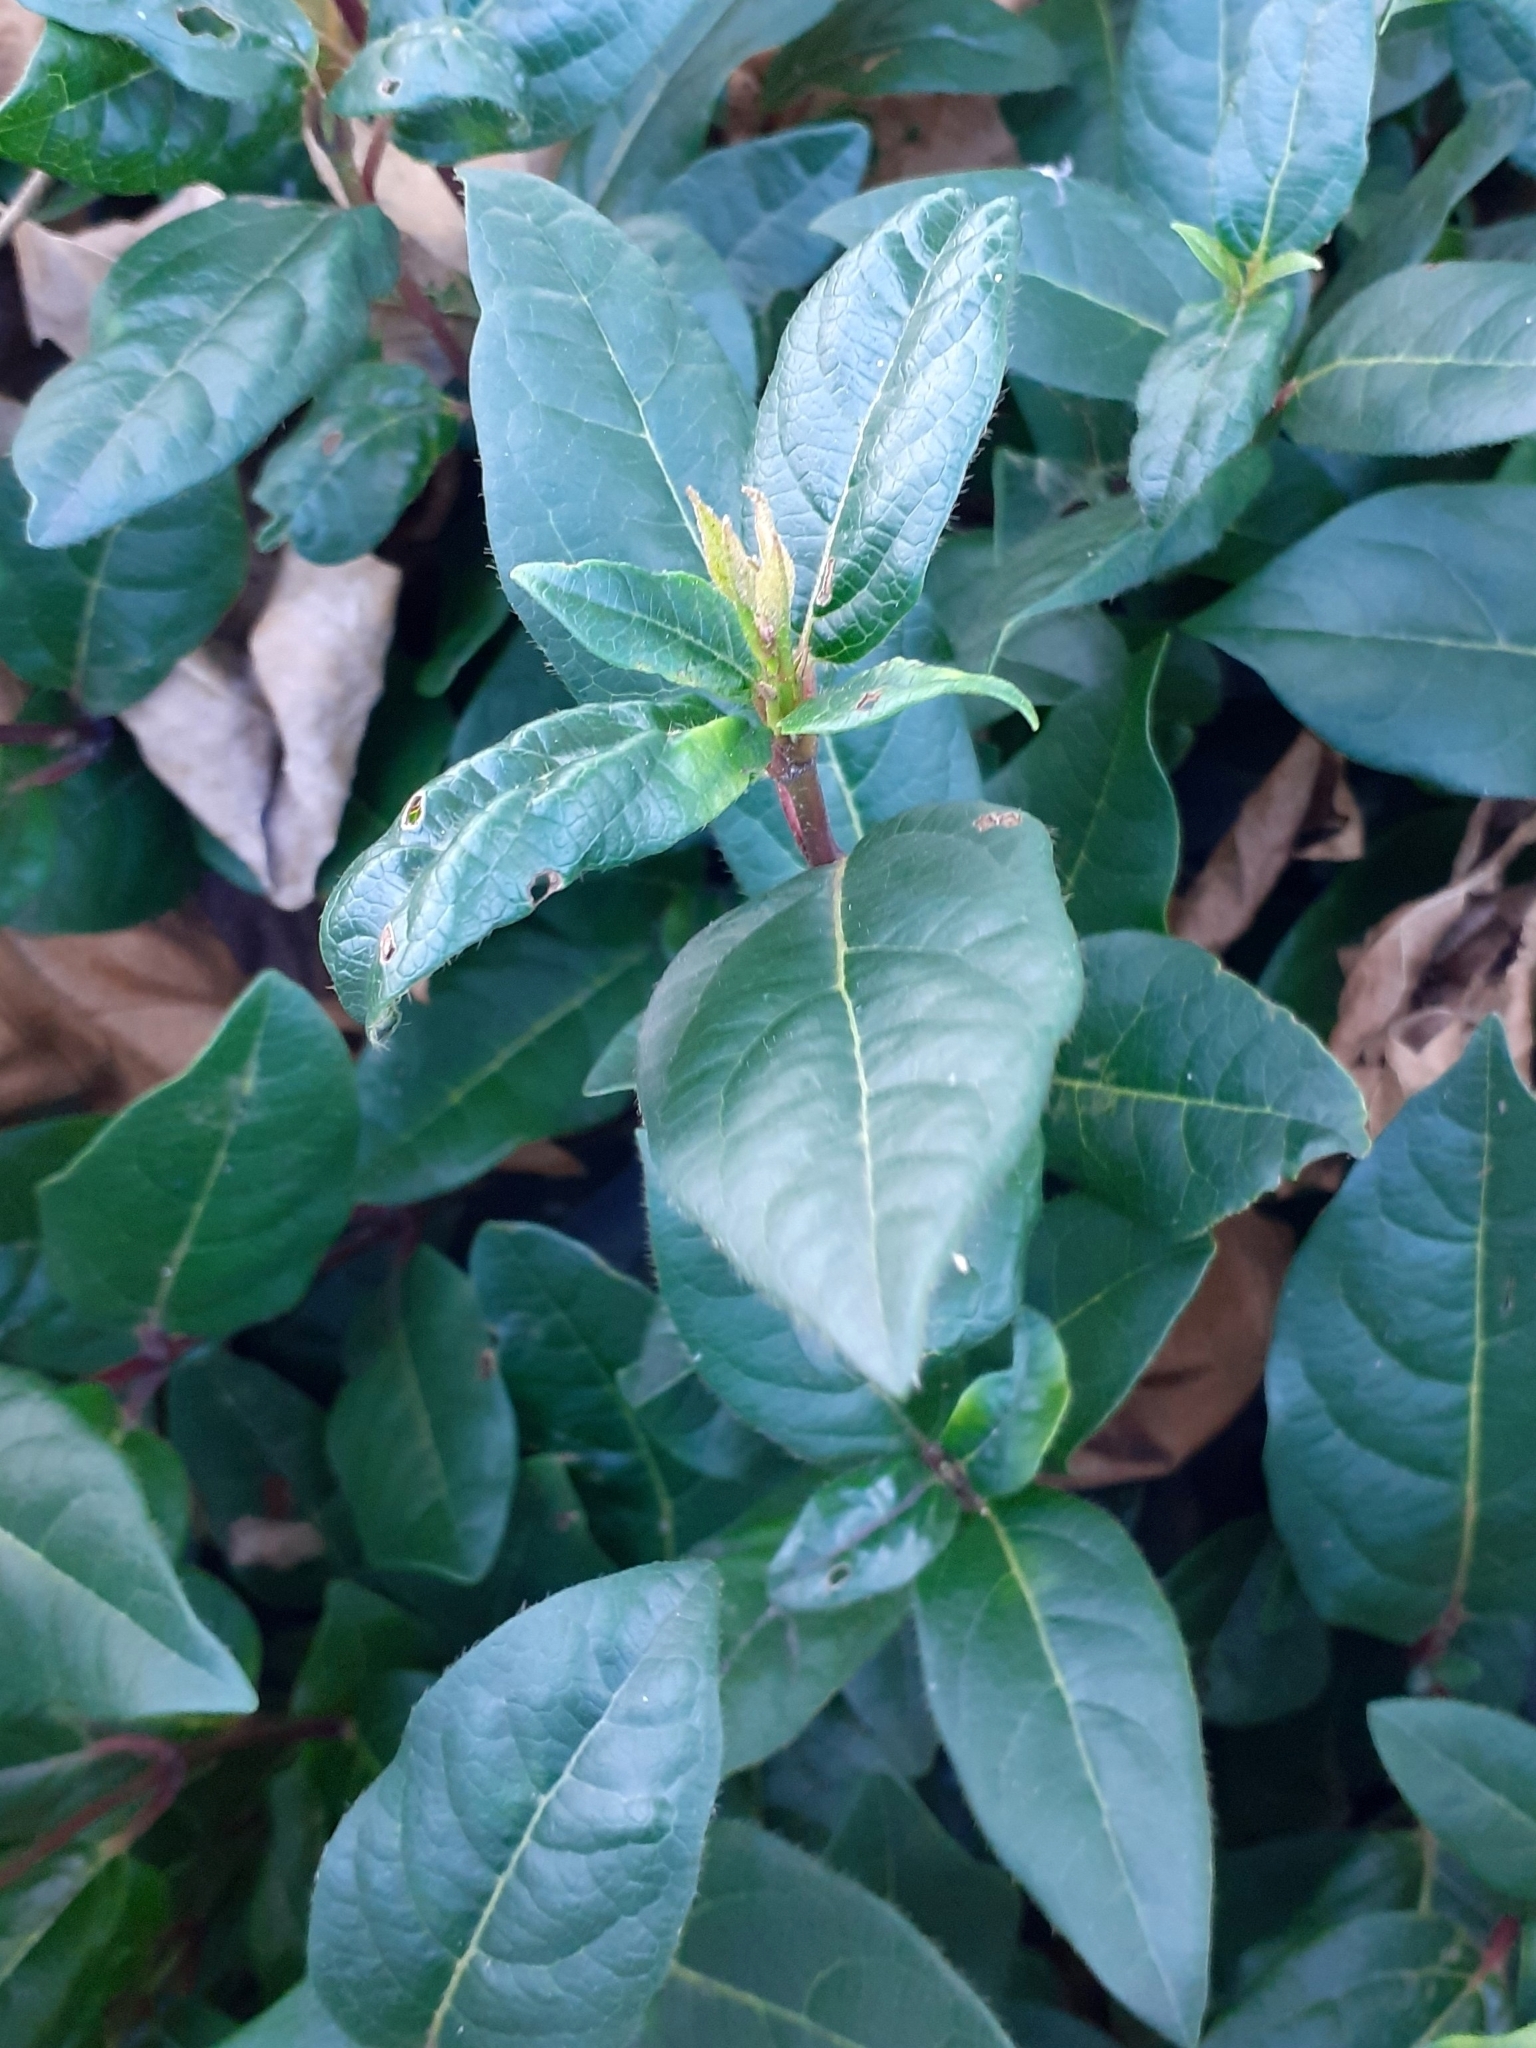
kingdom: Plantae
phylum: Tracheophyta
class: Magnoliopsida
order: Dipsacales
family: Viburnaceae
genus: Viburnum
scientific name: Viburnum tinus
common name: Laurustinus
